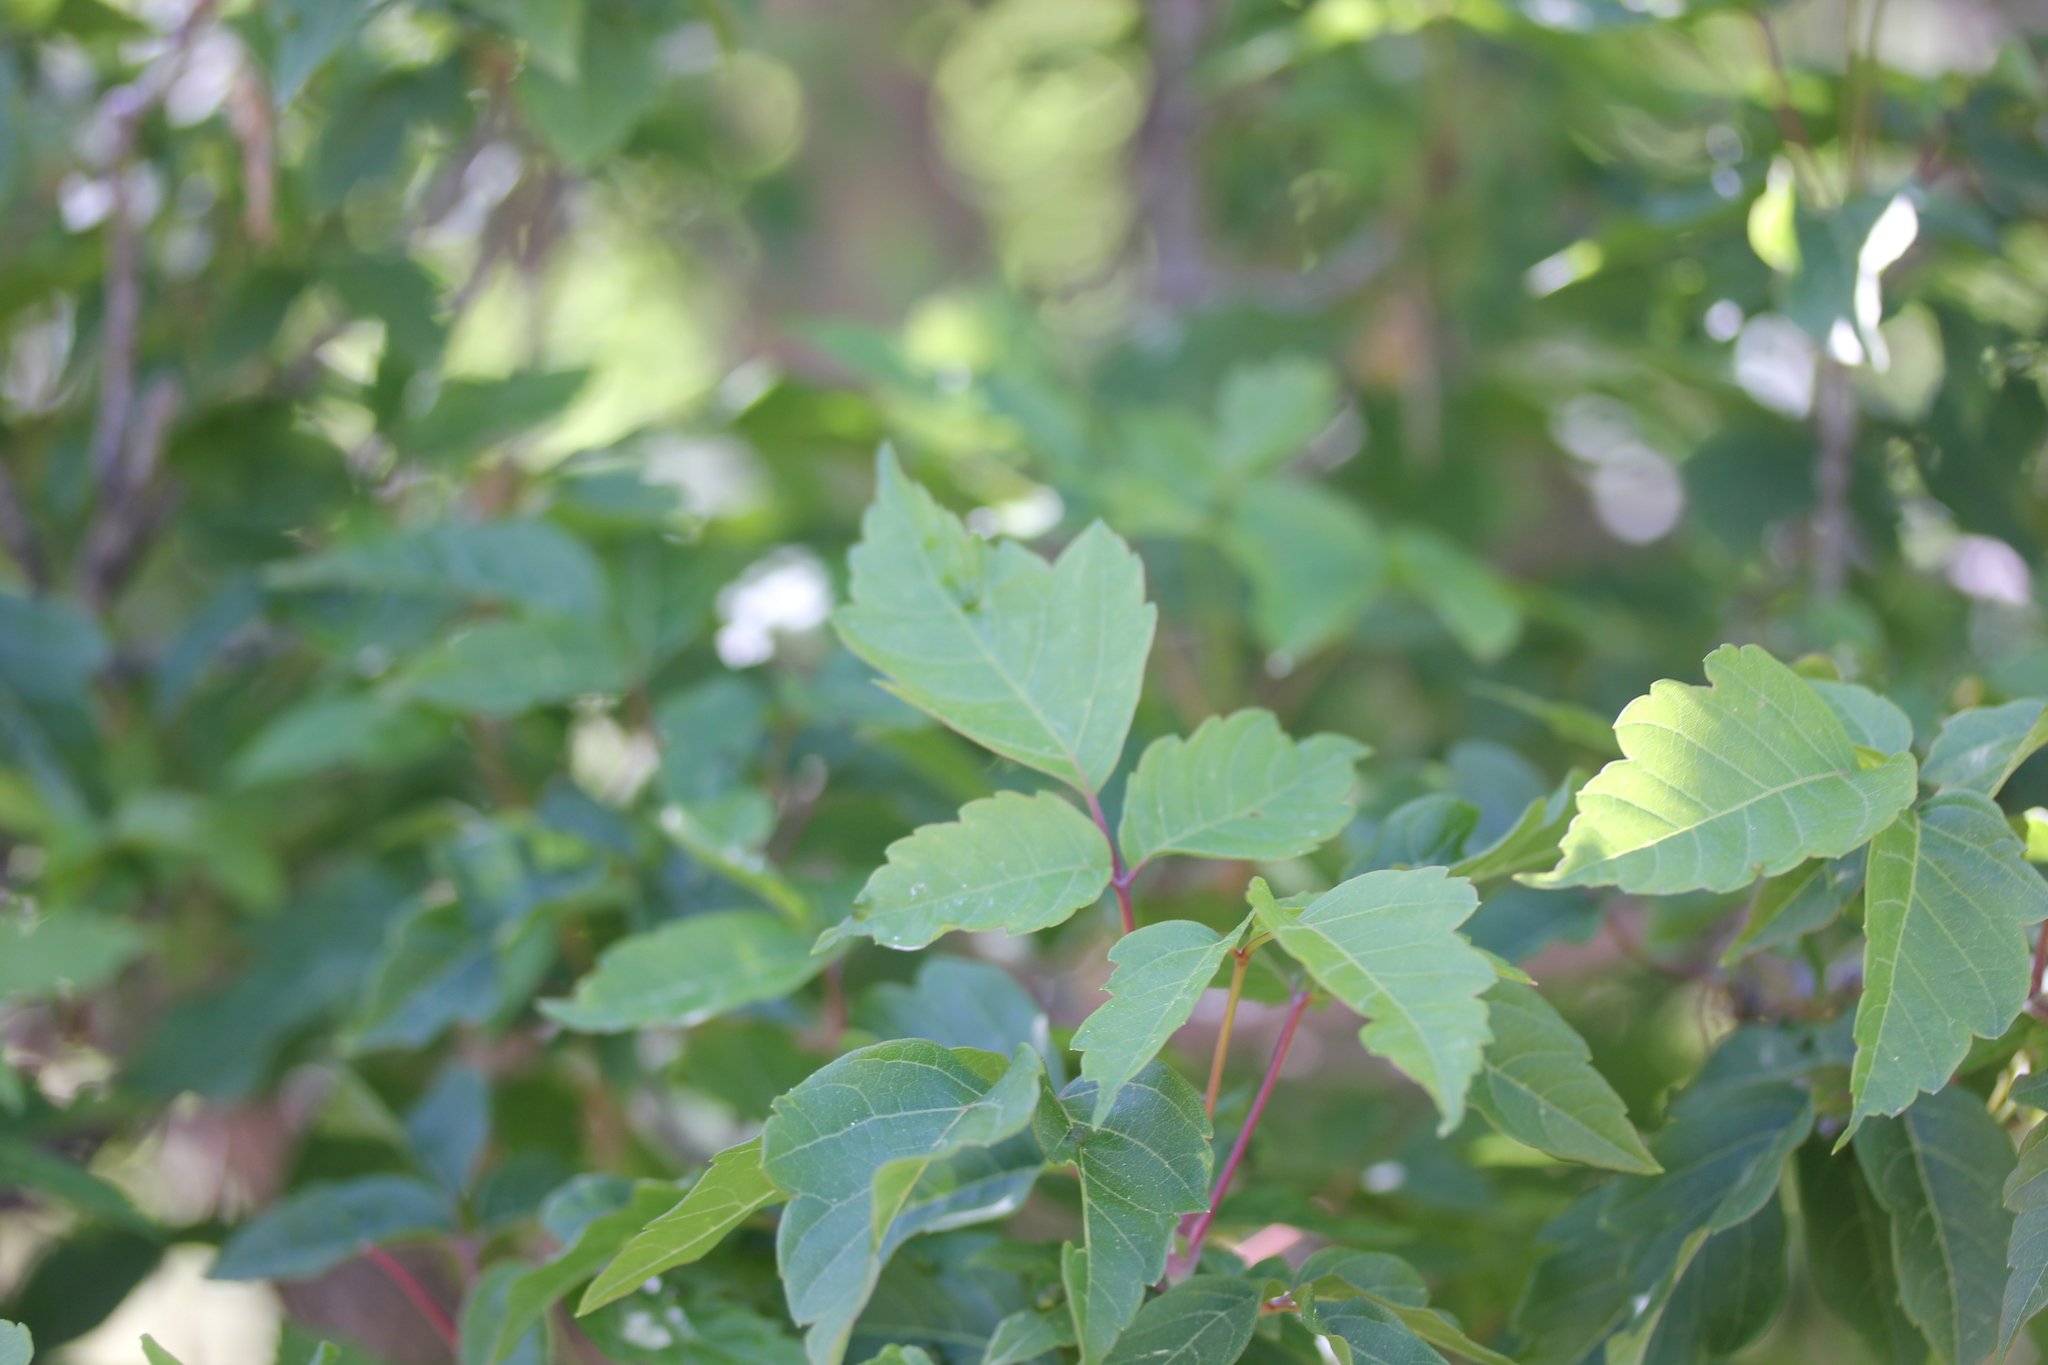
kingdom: Plantae
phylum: Tracheophyta
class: Magnoliopsida
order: Sapindales
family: Sapindaceae
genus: Acer
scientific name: Acer negundo
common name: Ashleaf maple
